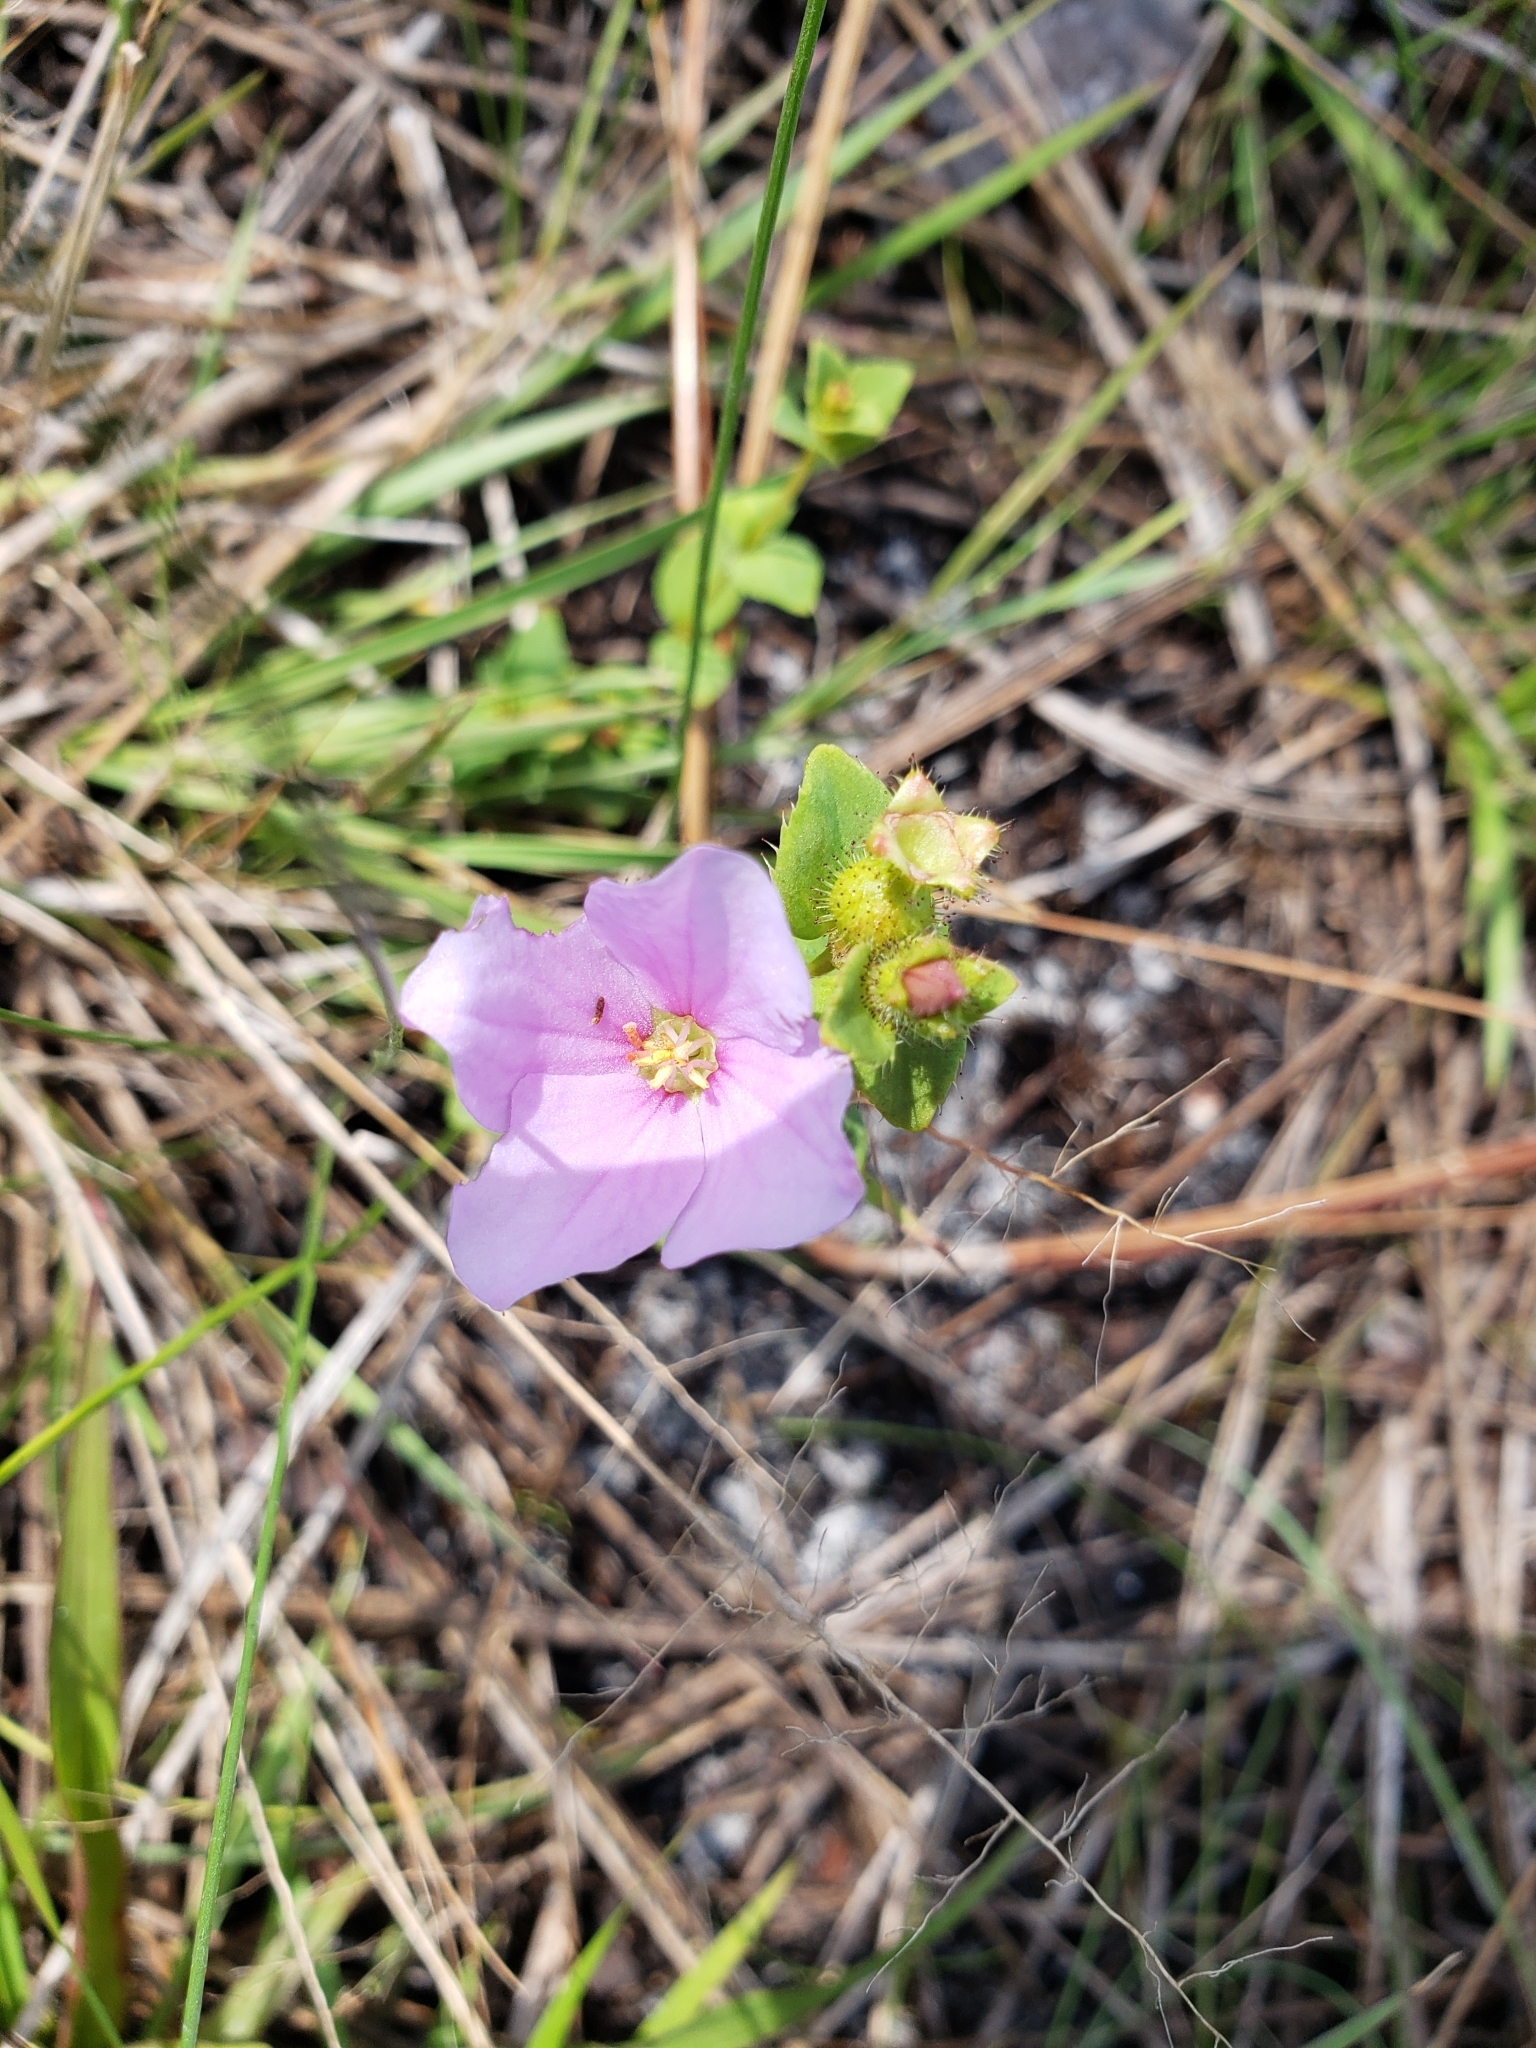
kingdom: Plantae
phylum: Tracheophyta
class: Magnoliopsida
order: Myrtales
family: Melastomataceae
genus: Rhexia
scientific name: Rhexia nuttallii
